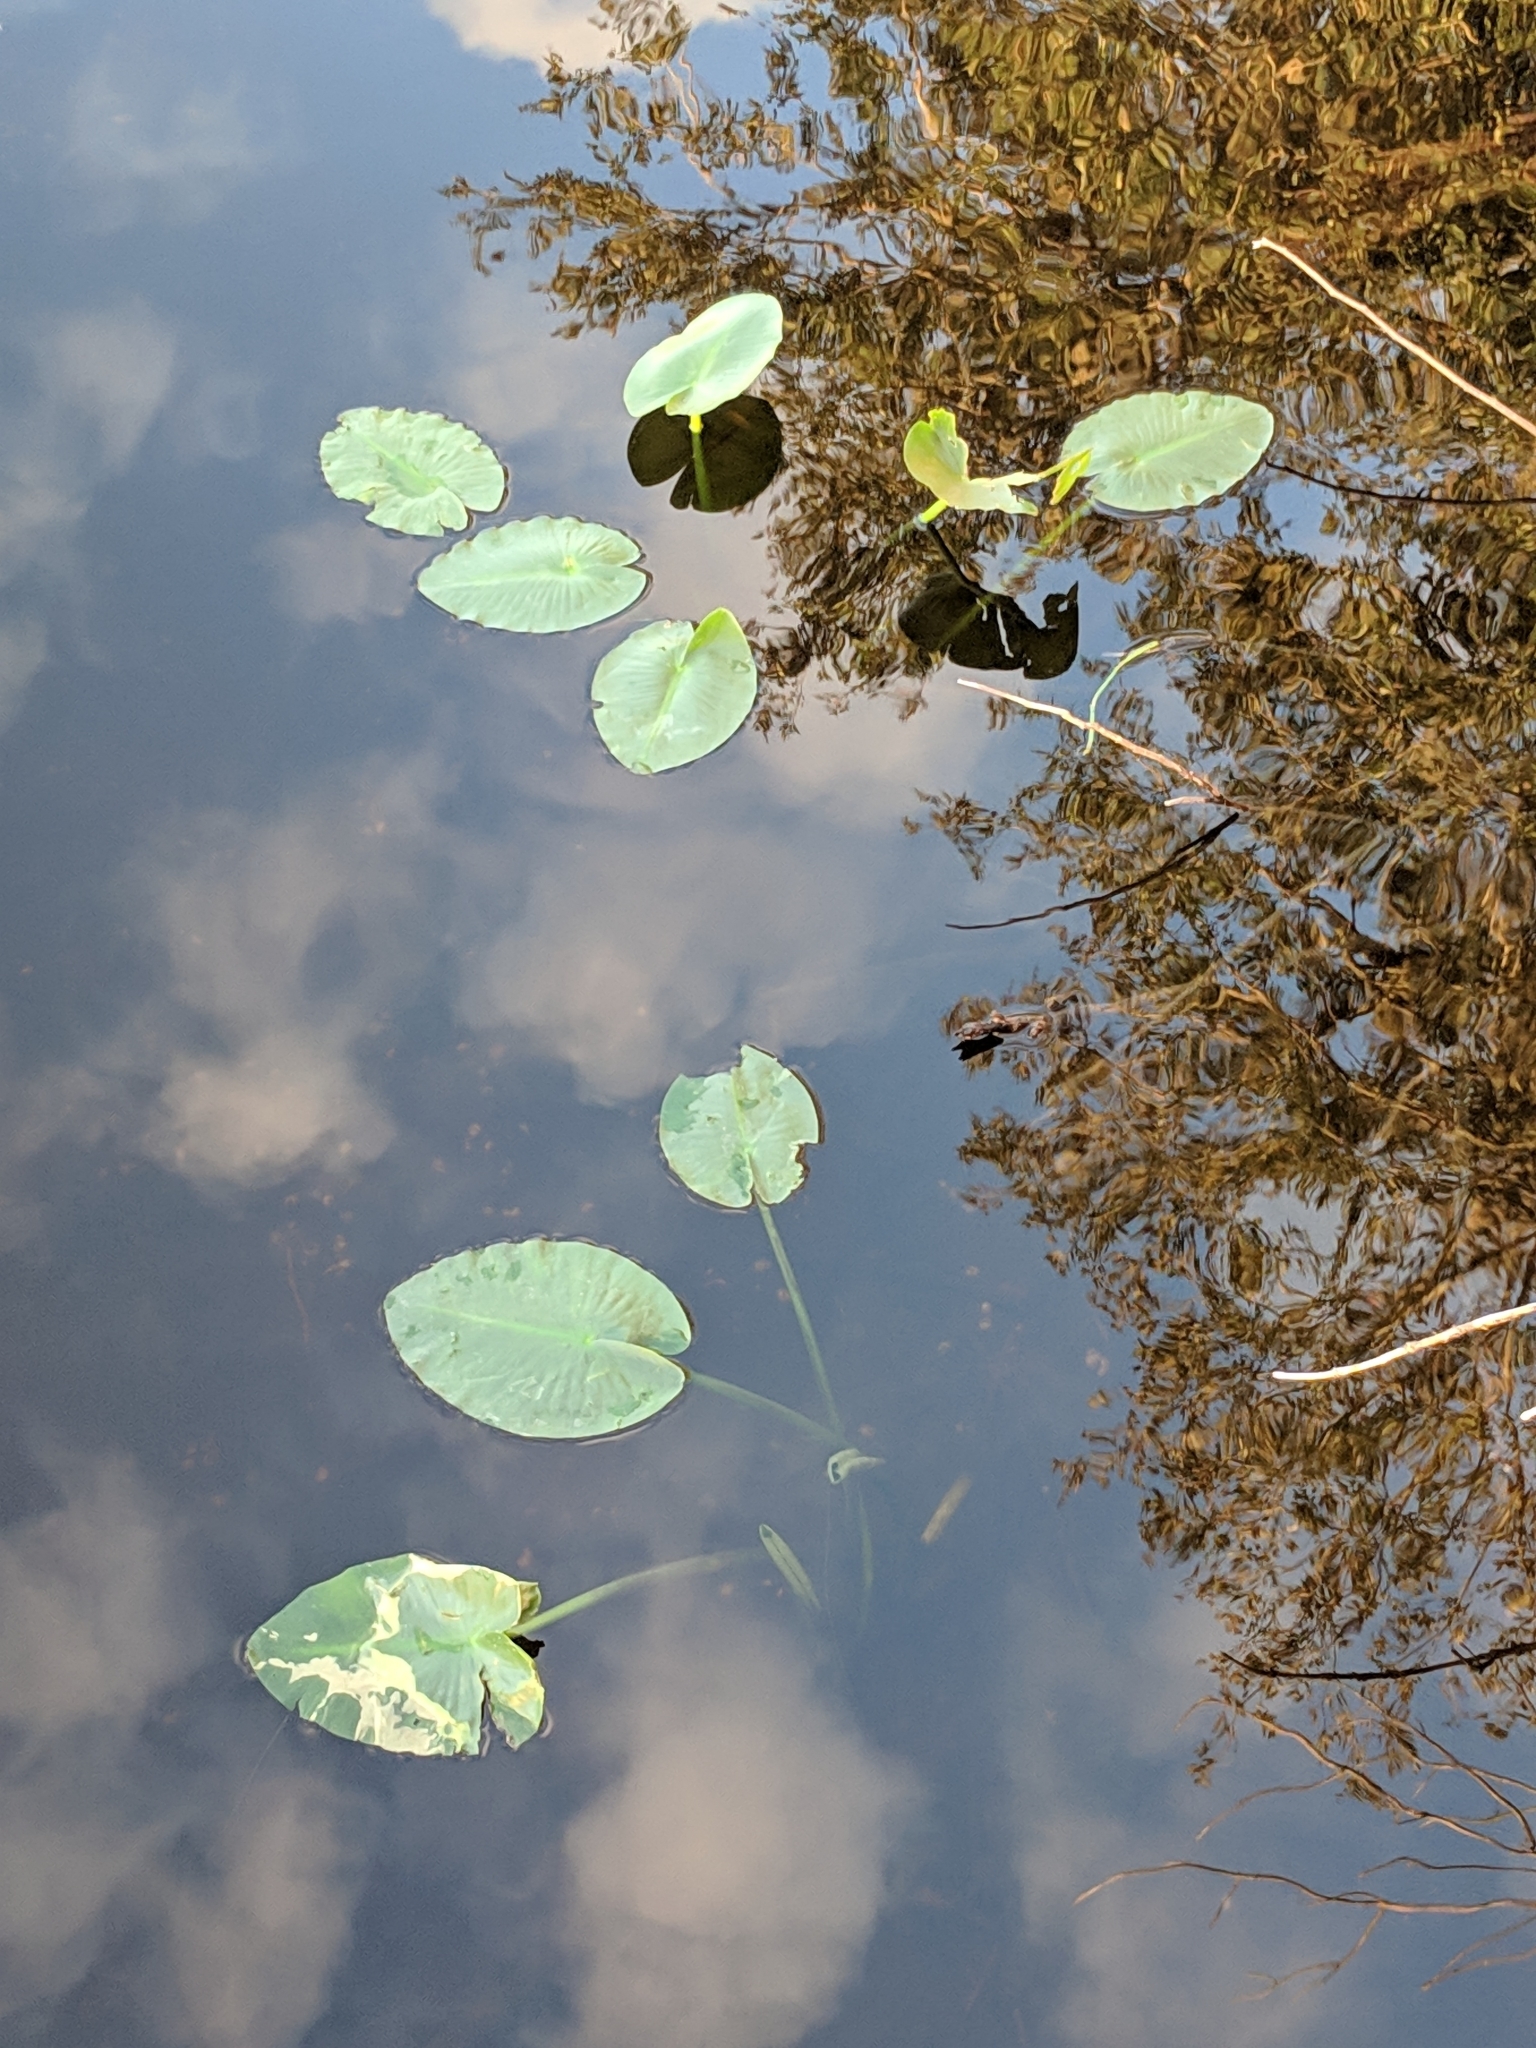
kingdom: Plantae
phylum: Tracheophyta
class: Magnoliopsida
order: Nymphaeales
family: Nymphaeaceae
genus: Nuphar
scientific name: Nuphar advena
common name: Spatter-dock
